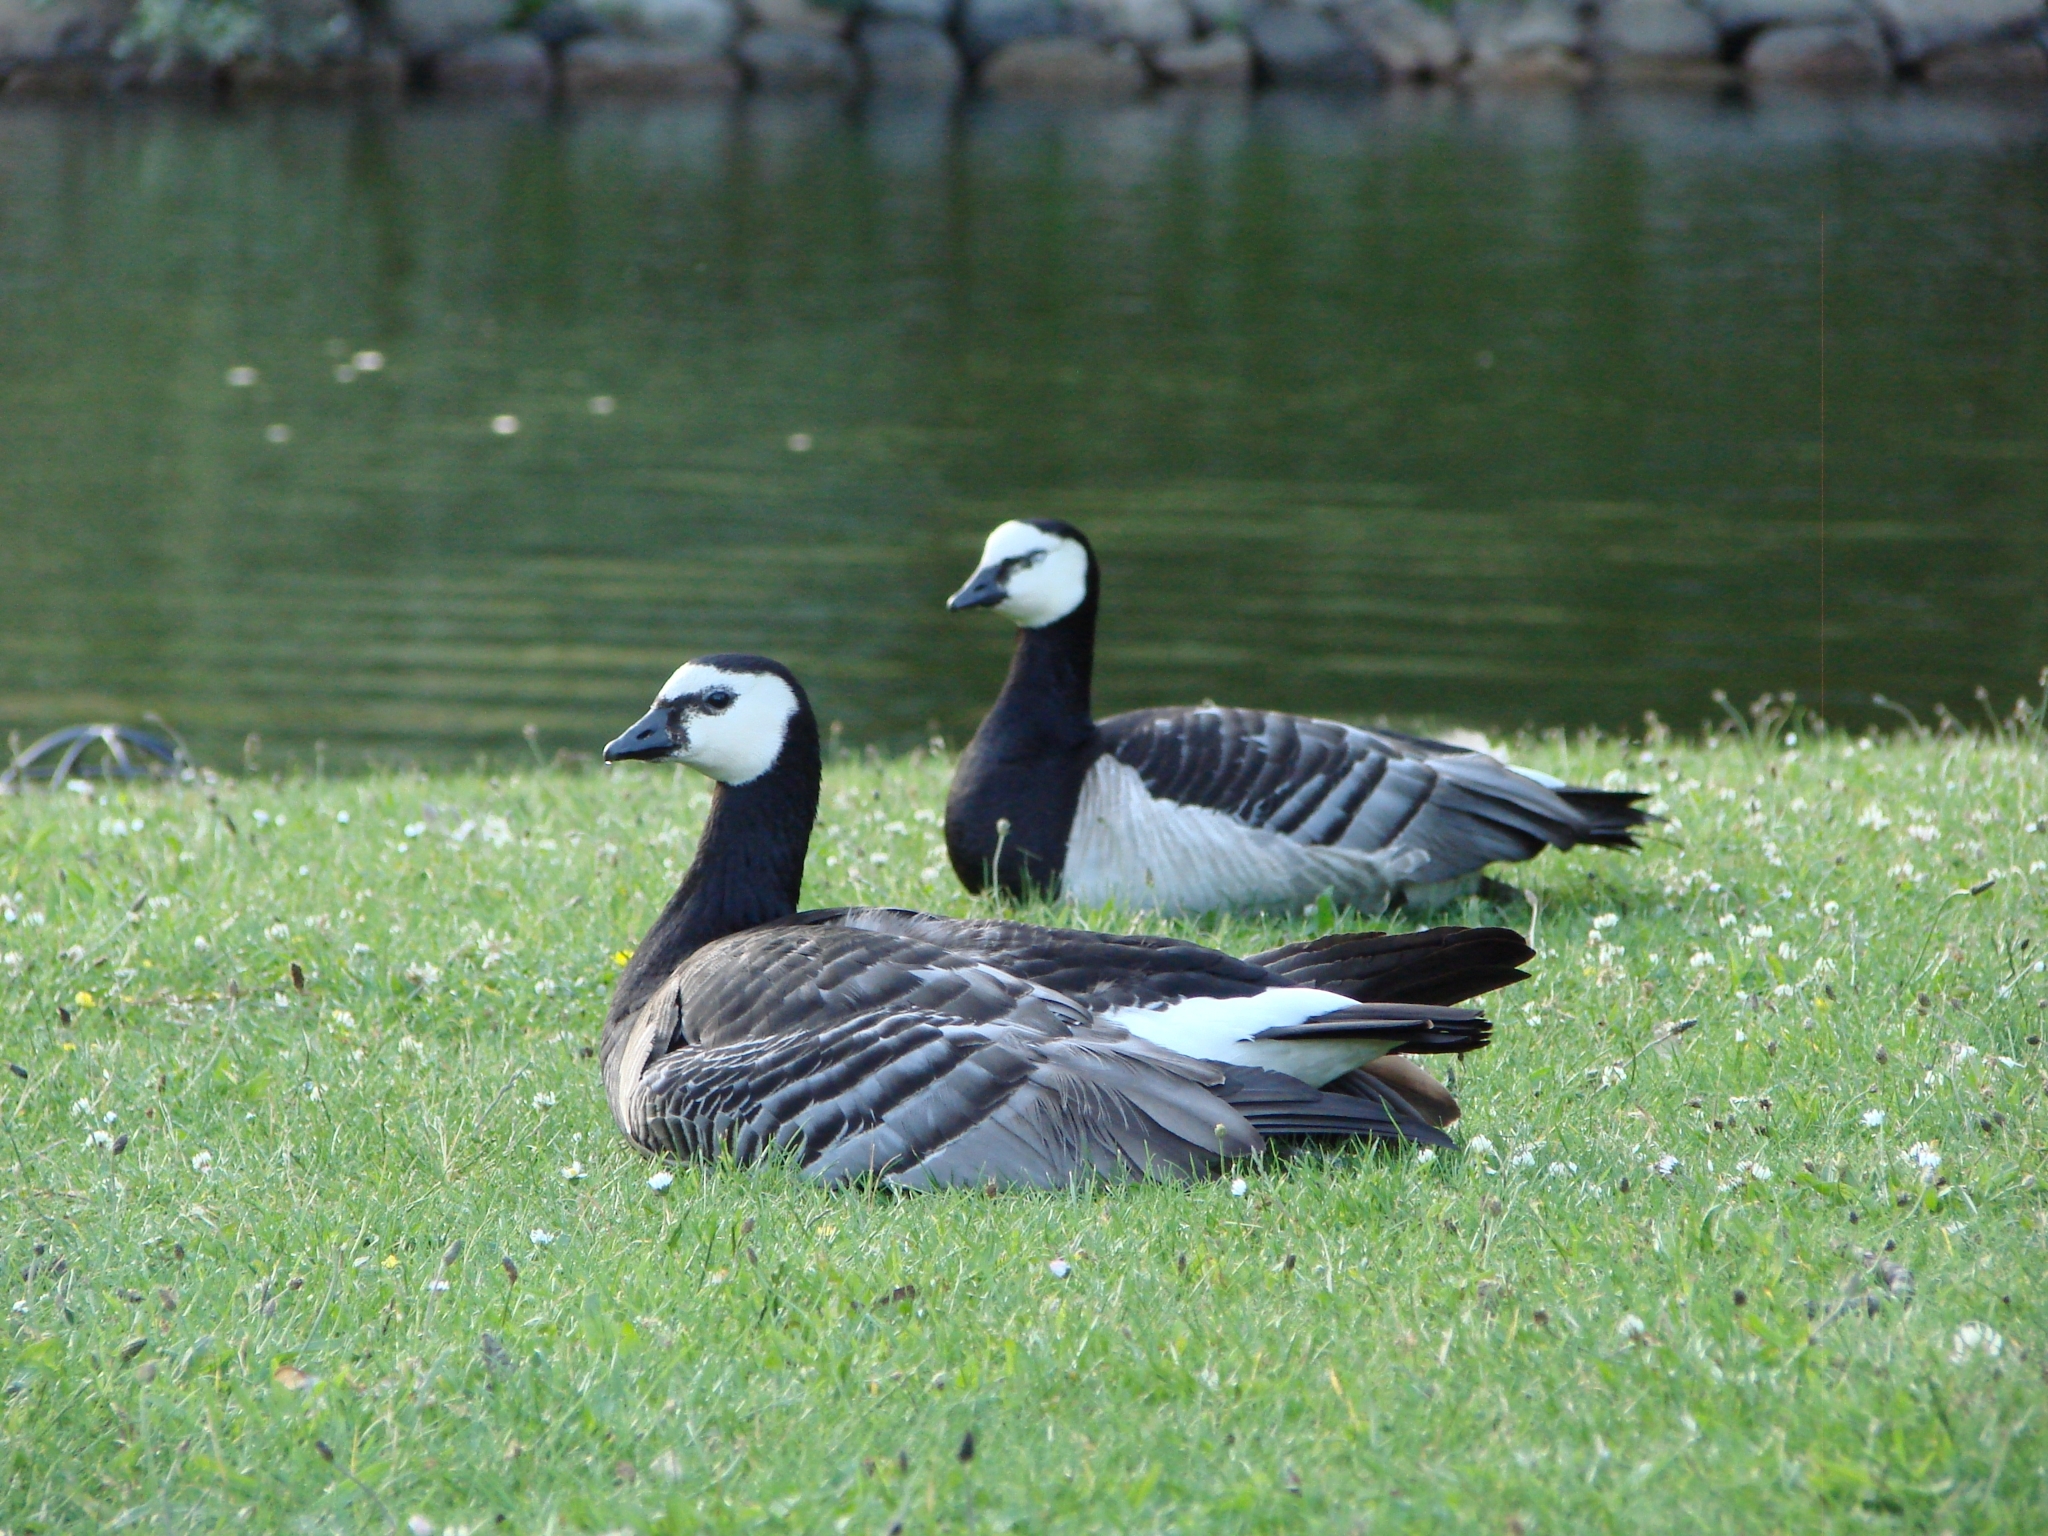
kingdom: Animalia
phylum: Chordata
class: Aves
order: Anseriformes
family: Anatidae
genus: Branta
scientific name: Branta leucopsis
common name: Barnacle goose
